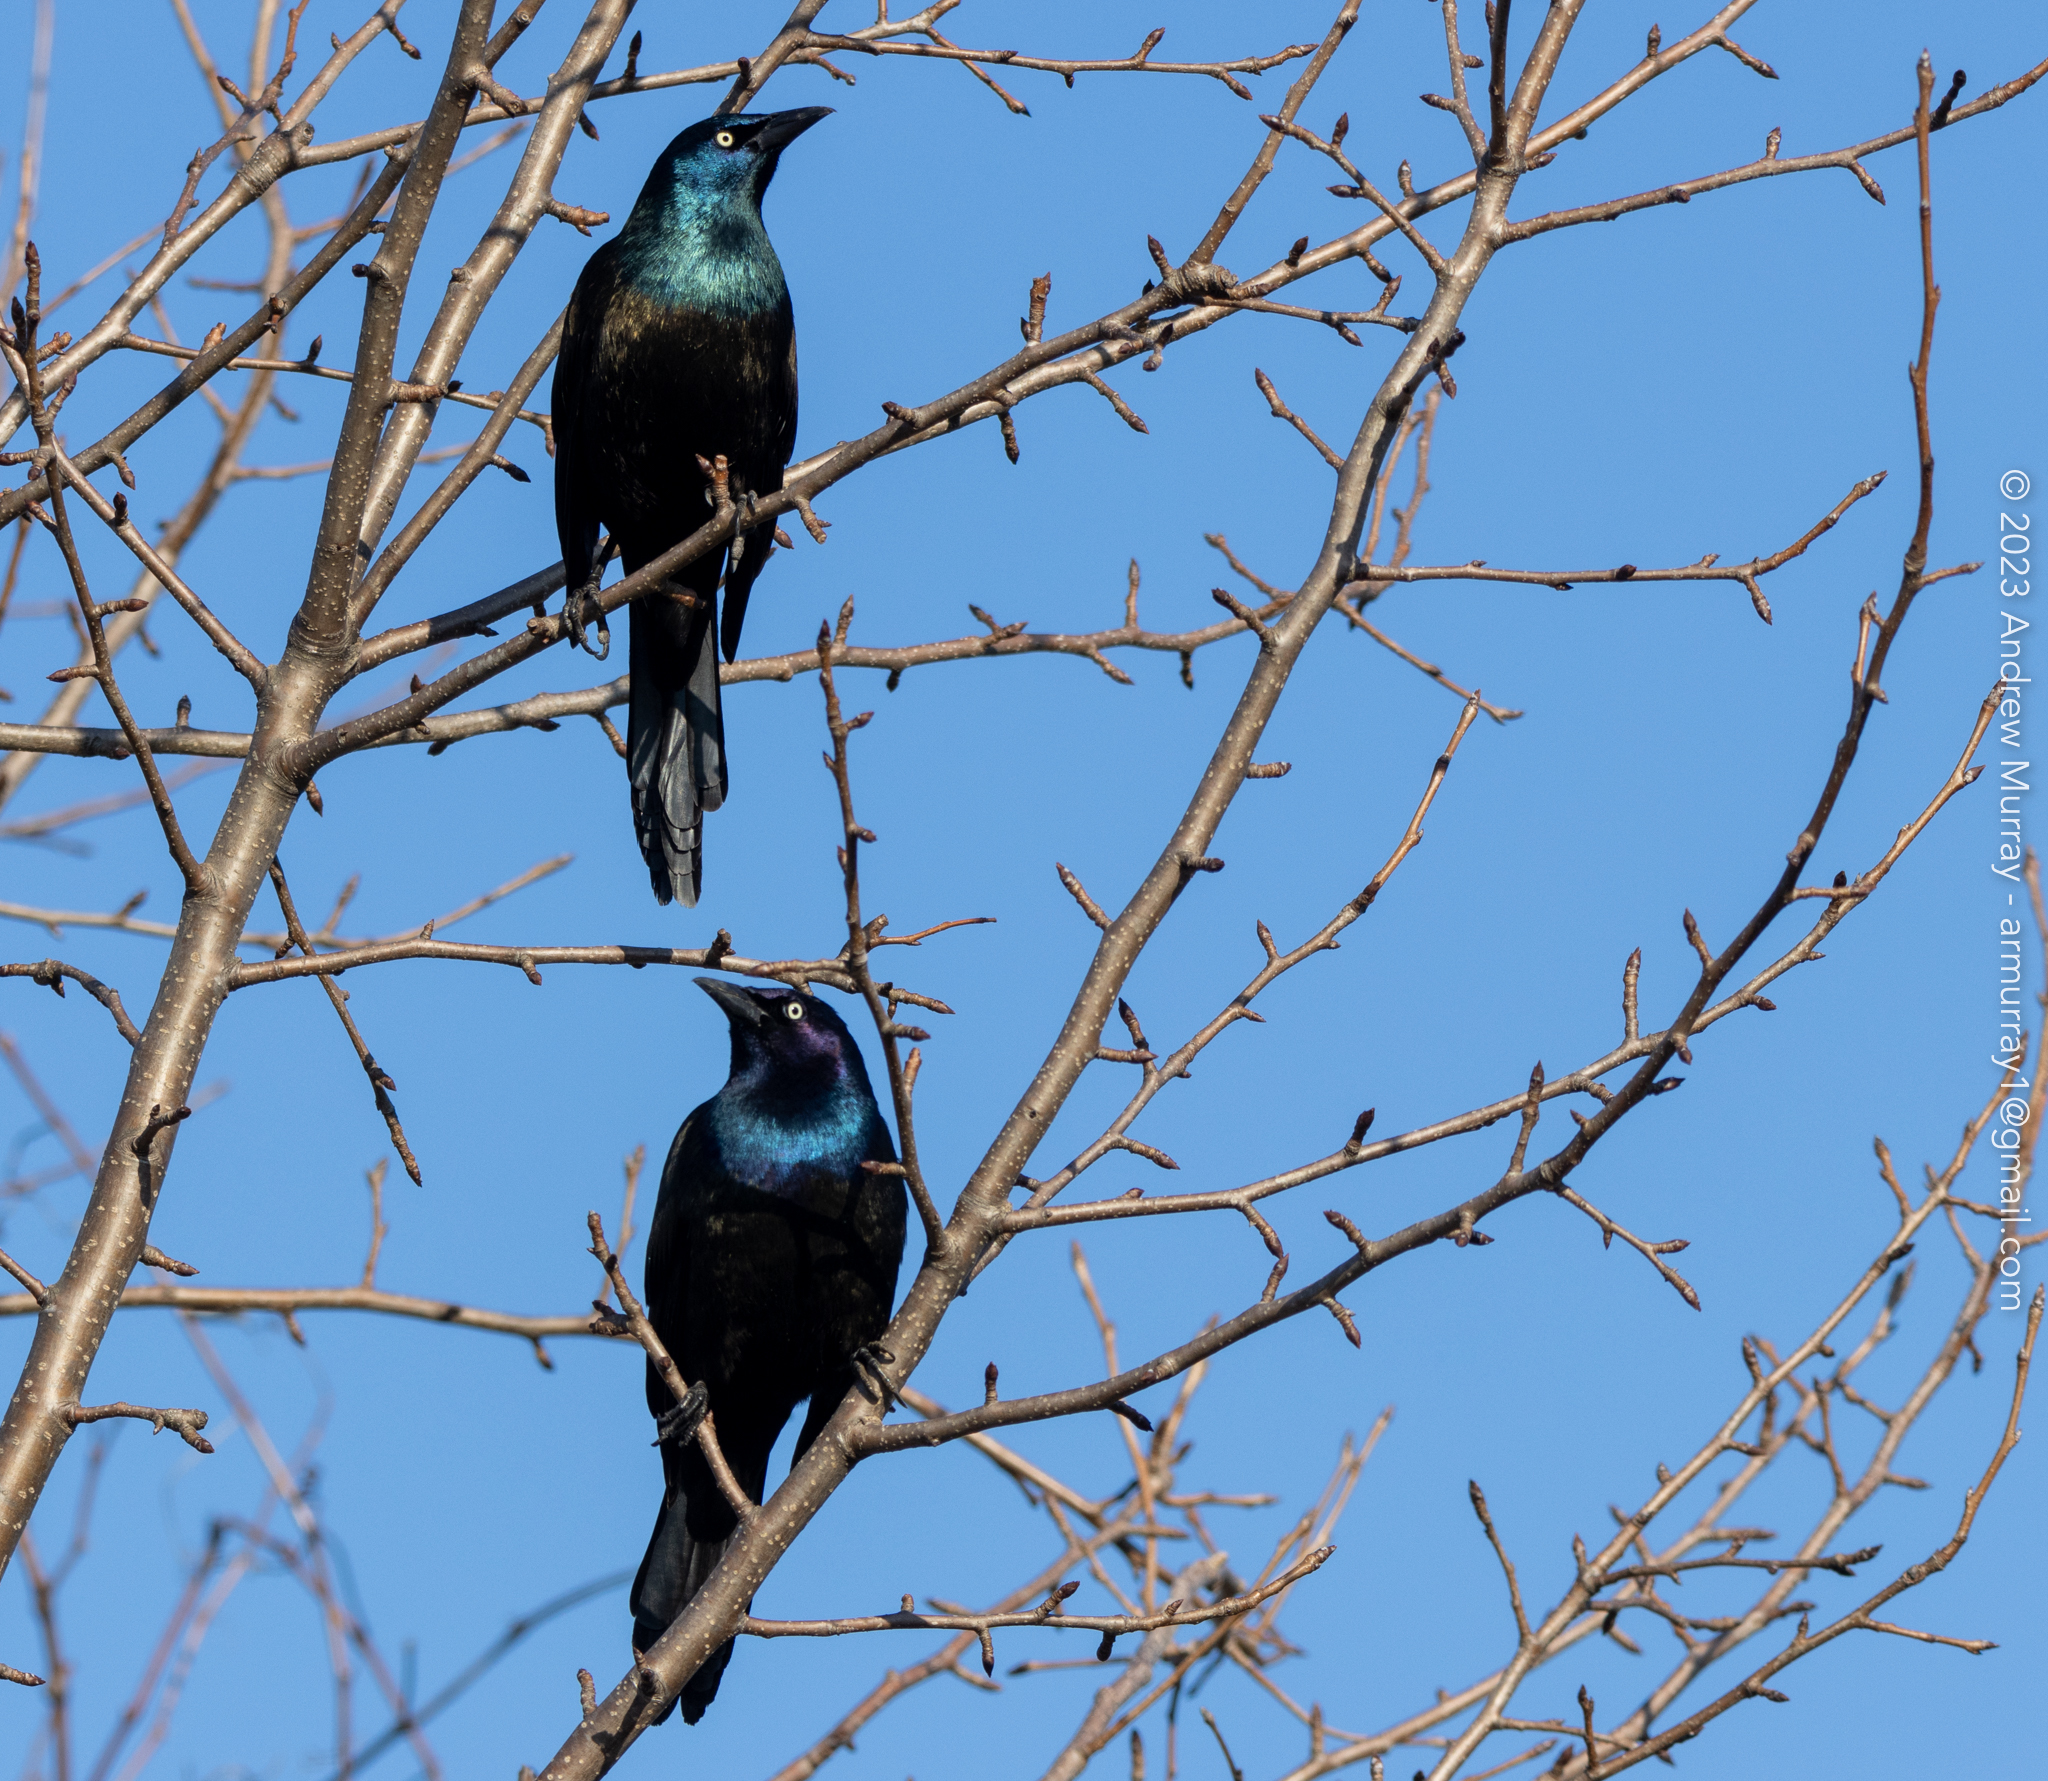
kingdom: Animalia
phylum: Chordata
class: Aves
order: Passeriformes
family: Icteridae
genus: Quiscalus
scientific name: Quiscalus quiscula
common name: Common grackle
